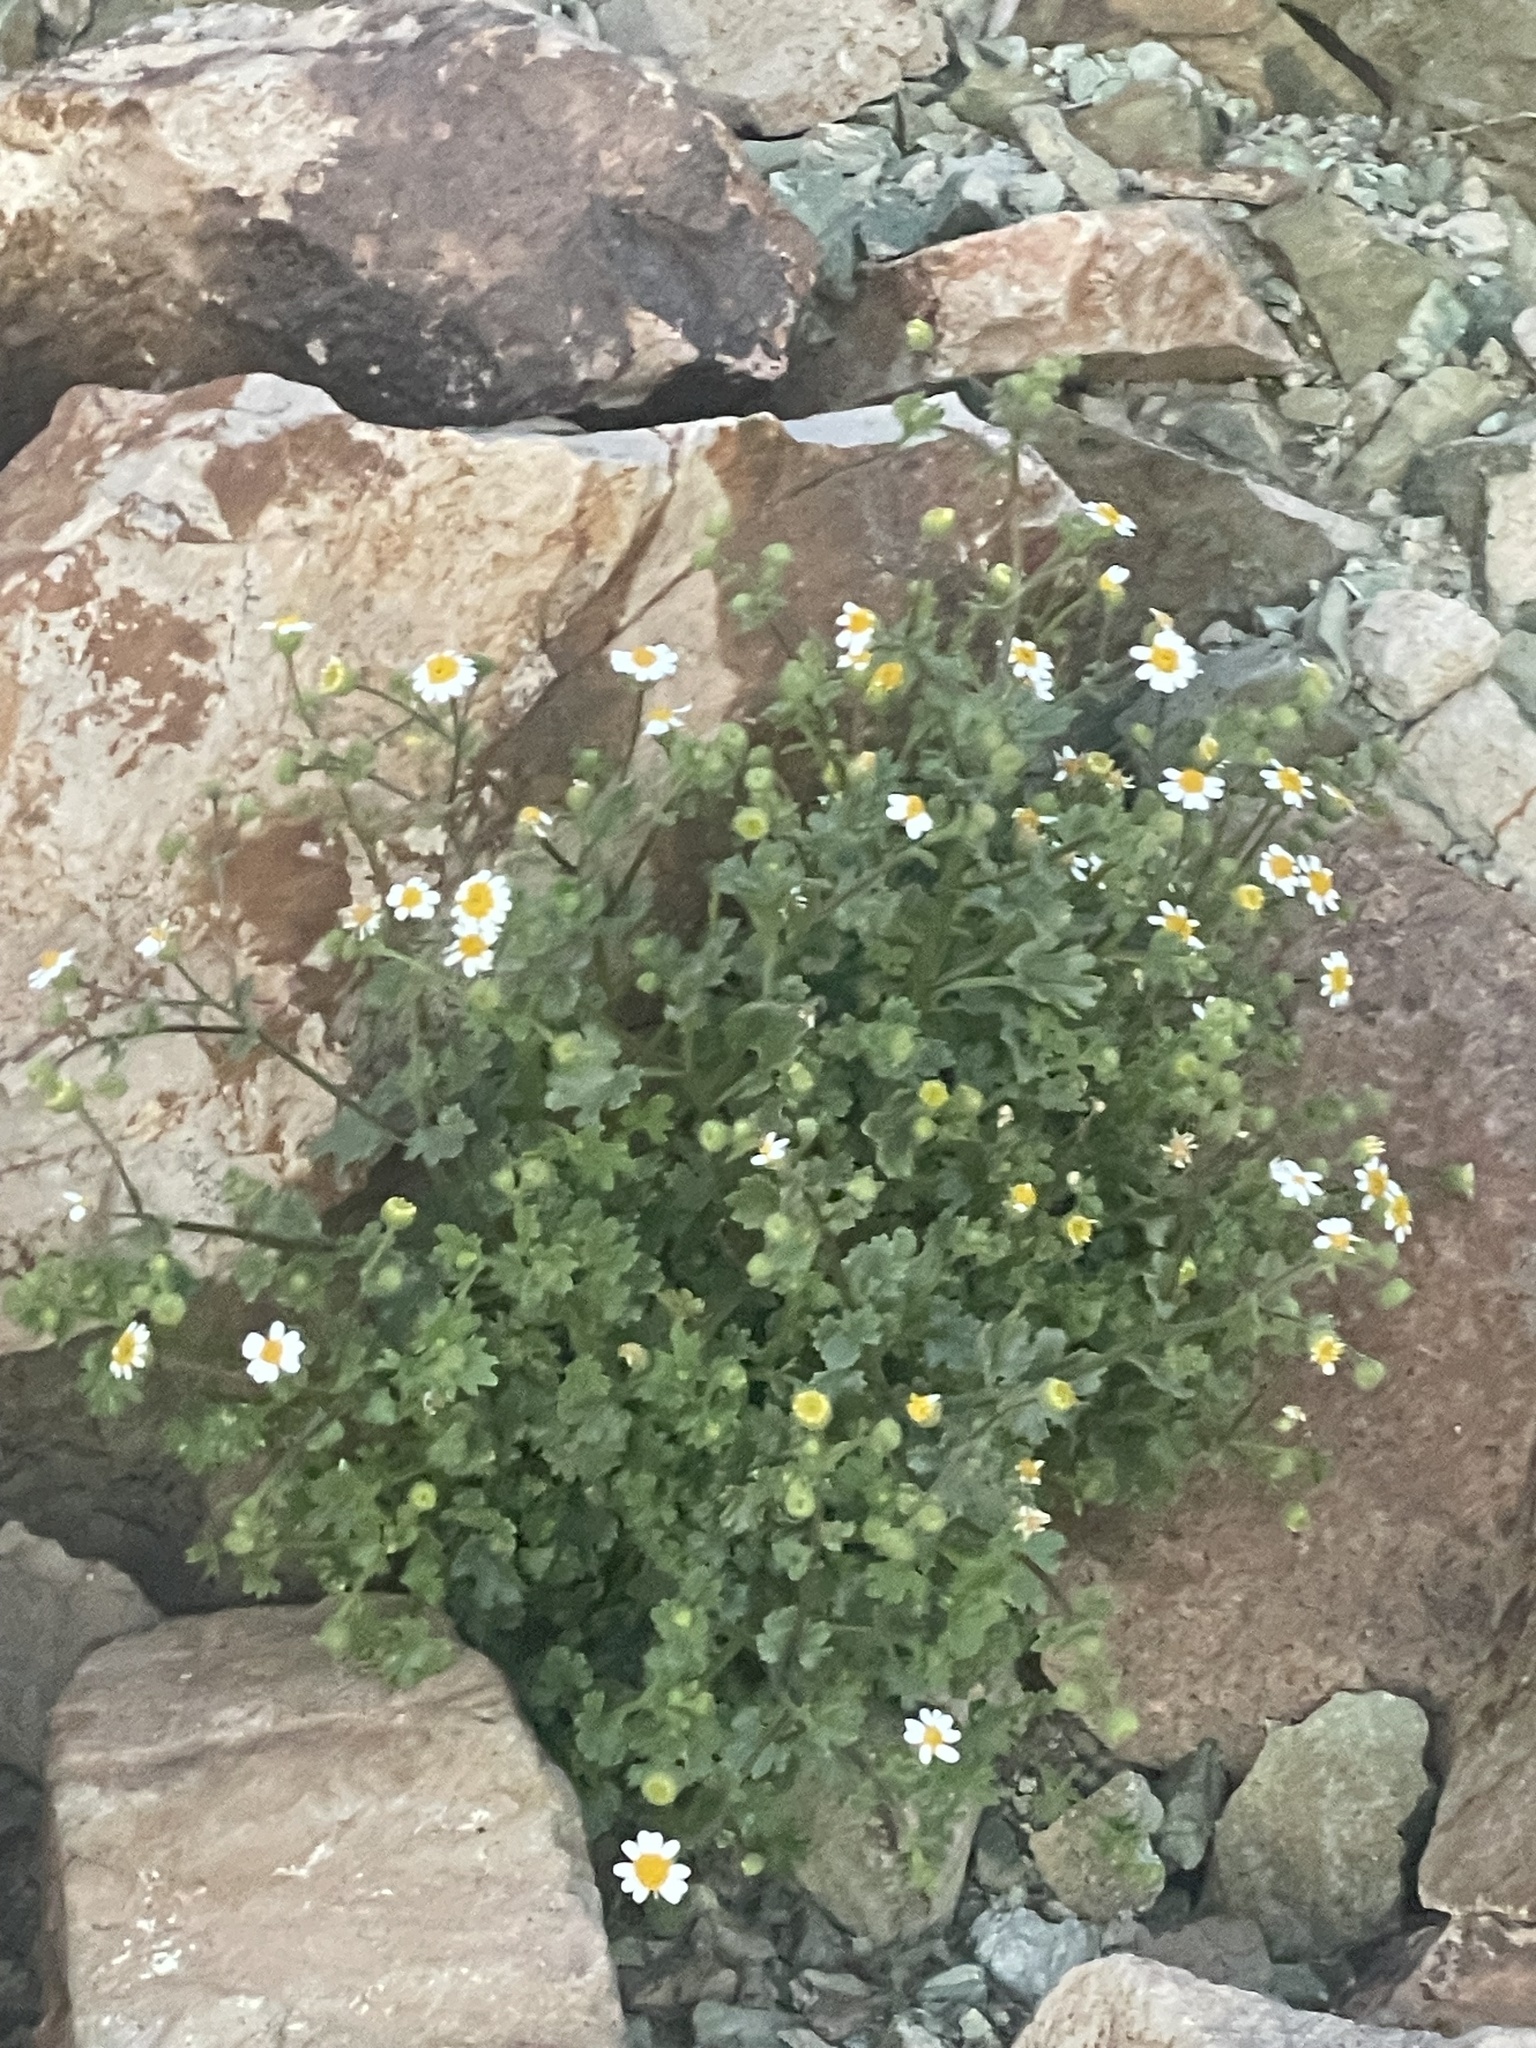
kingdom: Plantae
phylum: Tracheophyta
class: Magnoliopsida
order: Asterales
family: Asteraceae
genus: Laphamia
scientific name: Laphamia emoryi
